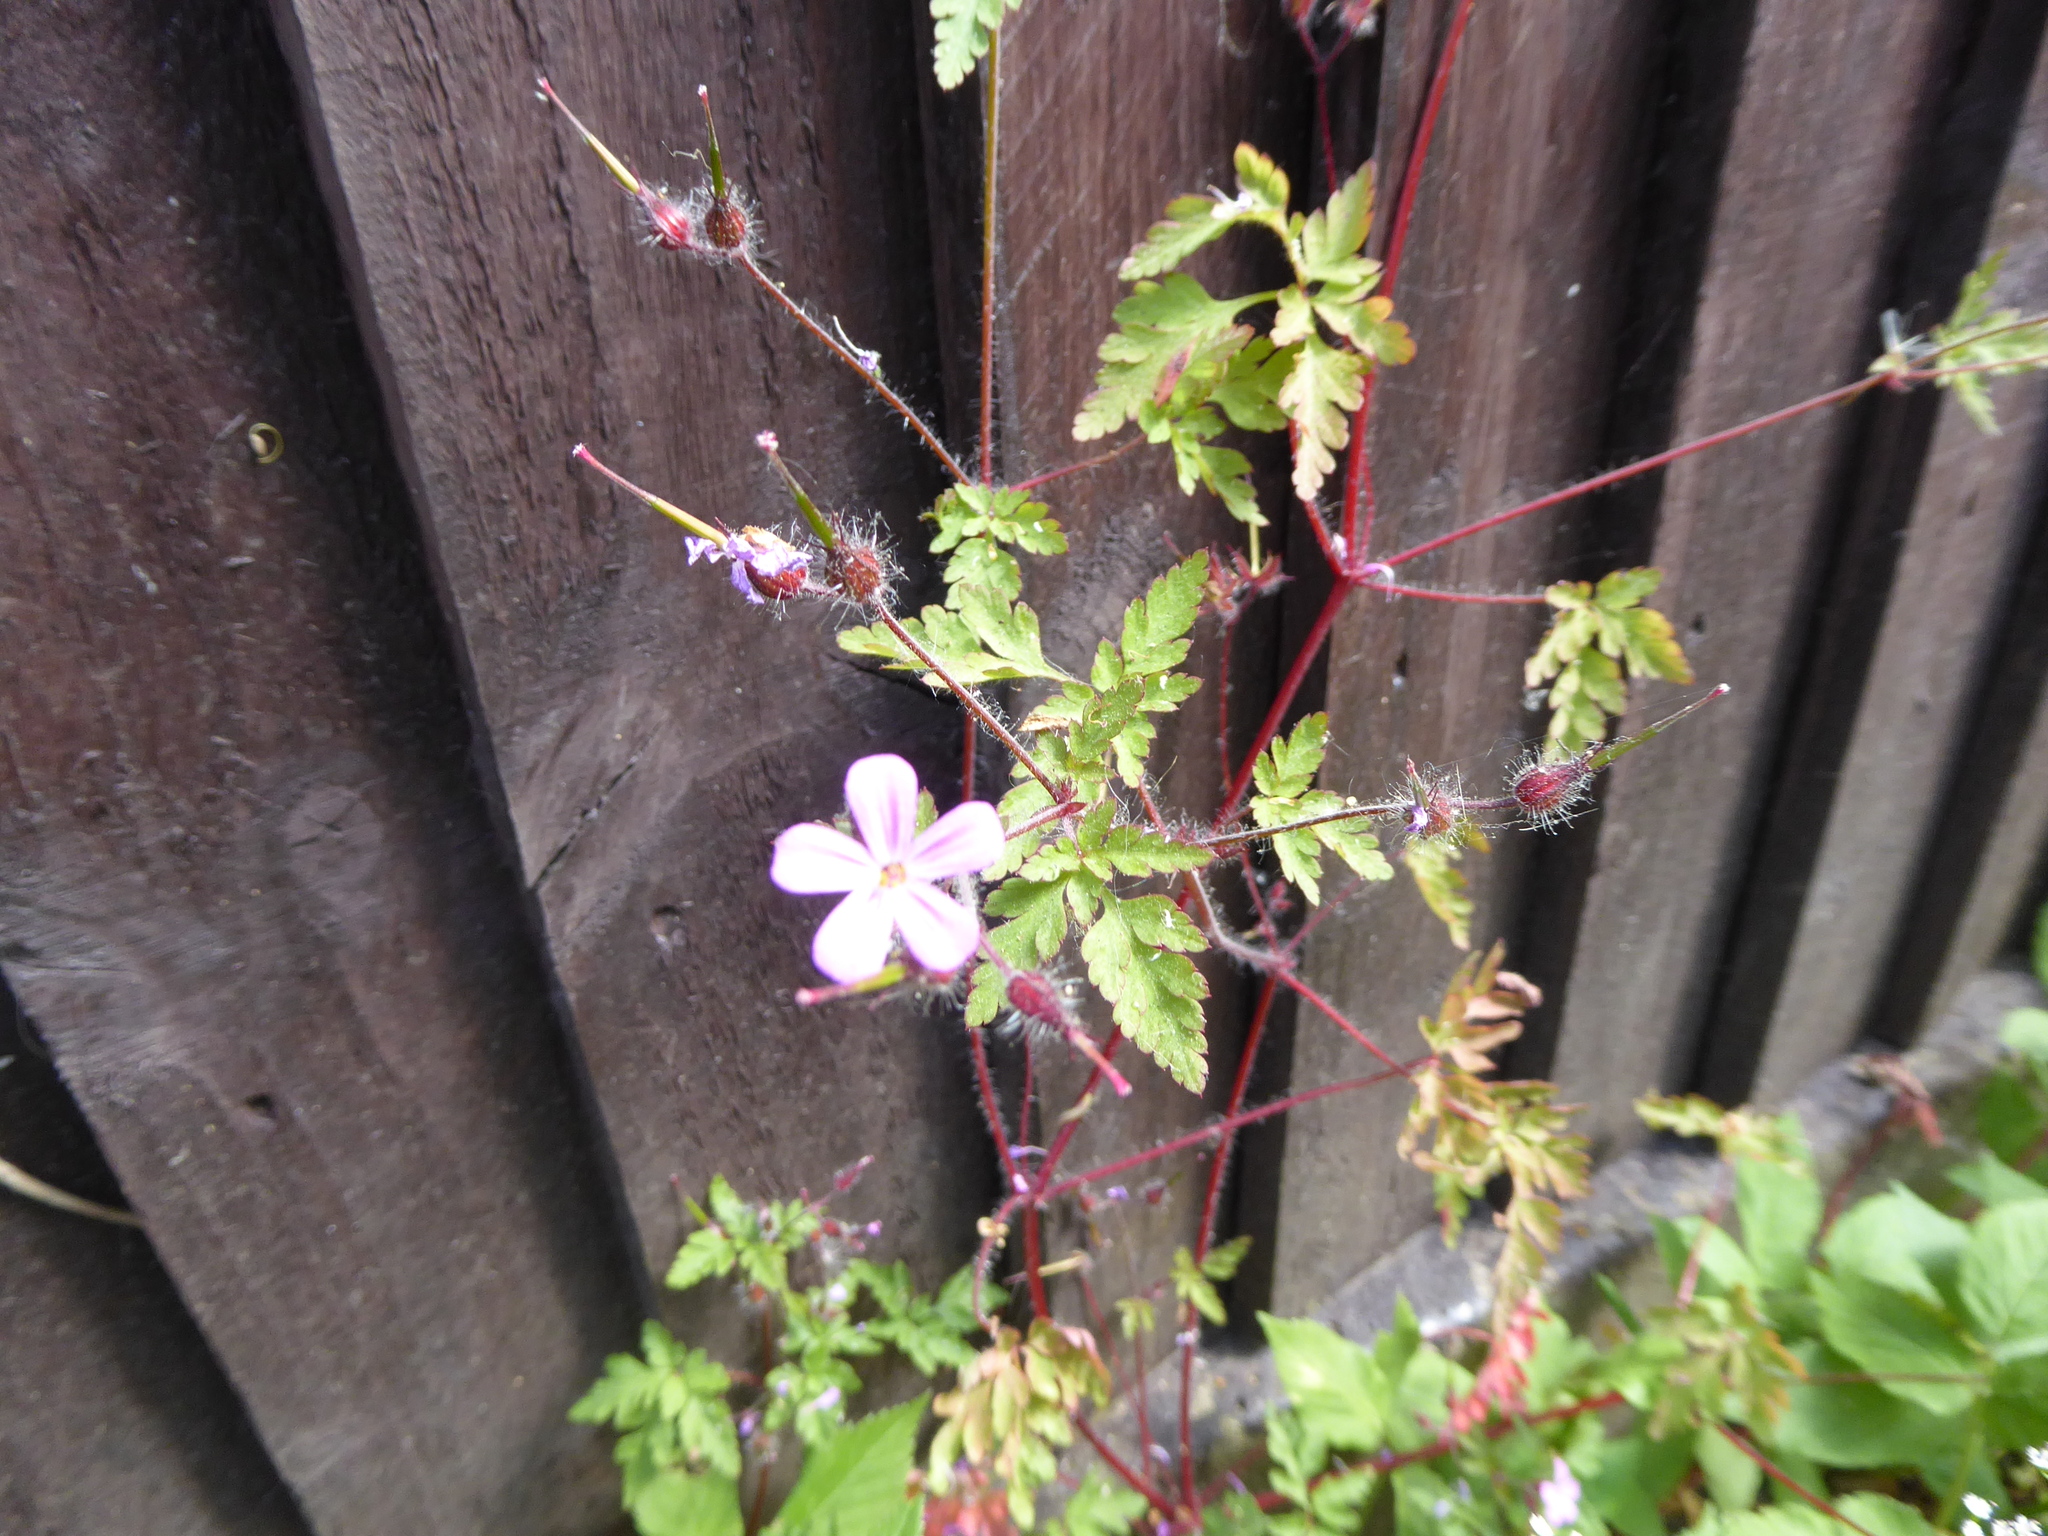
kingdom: Plantae
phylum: Tracheophyta
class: Magnoliopsida
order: Geraniales
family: Geraniaceae
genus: Geranium
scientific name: Geranium robertianum
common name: Herb-robert
